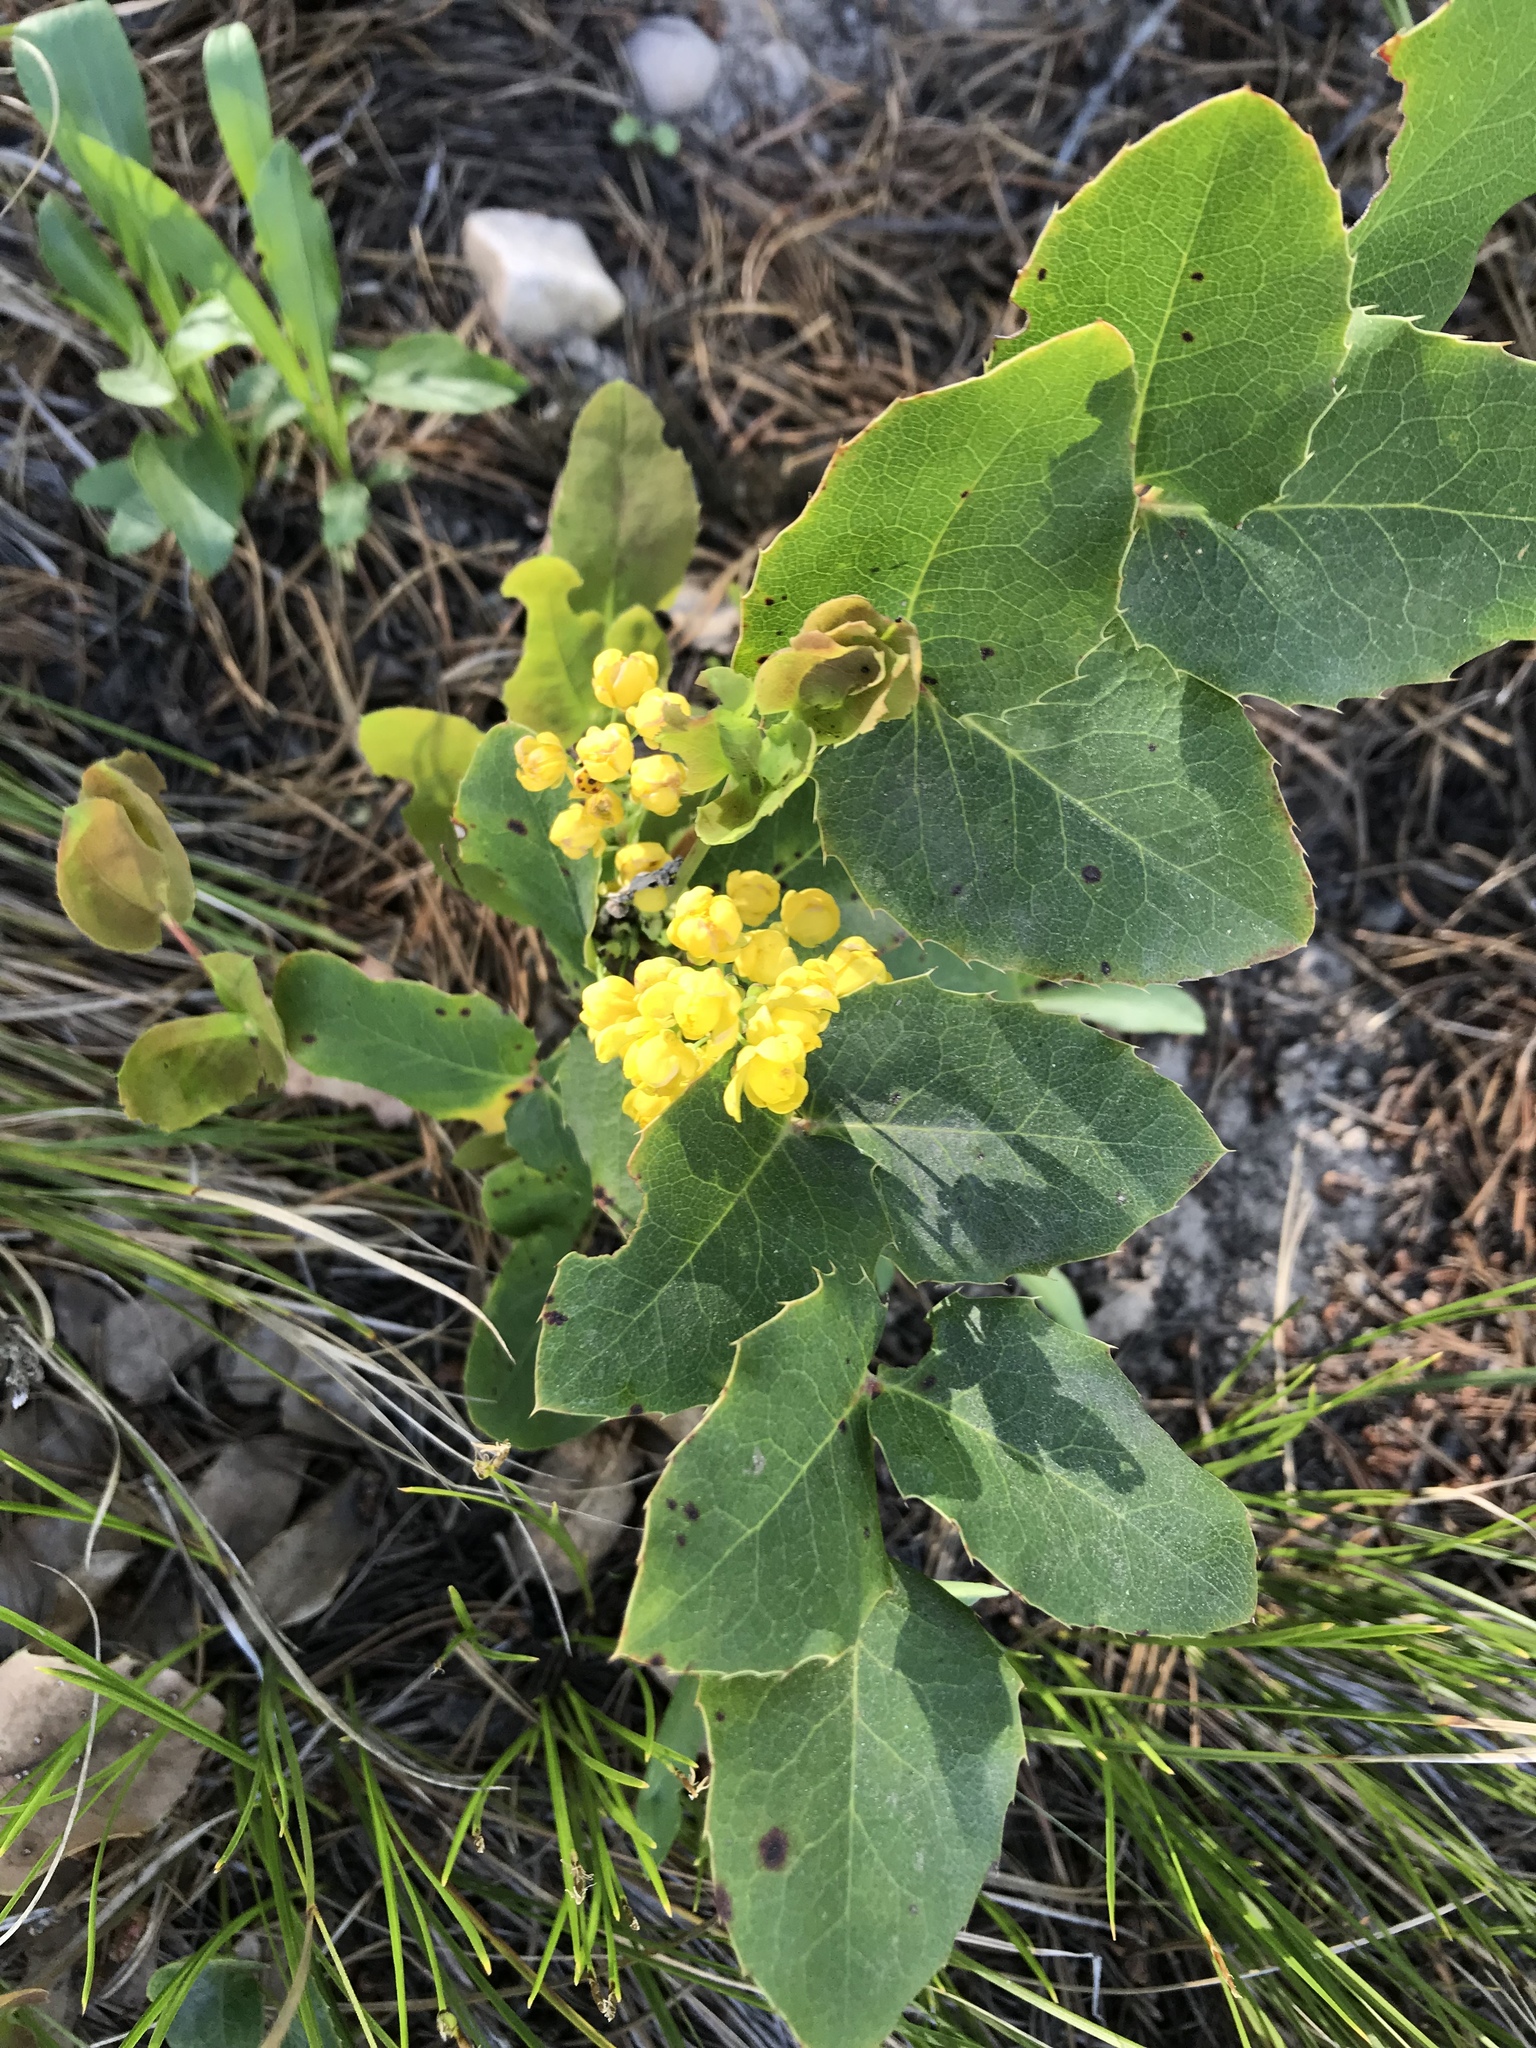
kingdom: Plantae
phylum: Tracheophyta
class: Magnoliopsida
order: Ranunculales
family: Berberidaceae
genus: Mahonia
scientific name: Mahonia repens
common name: Creeping oregon-grape
